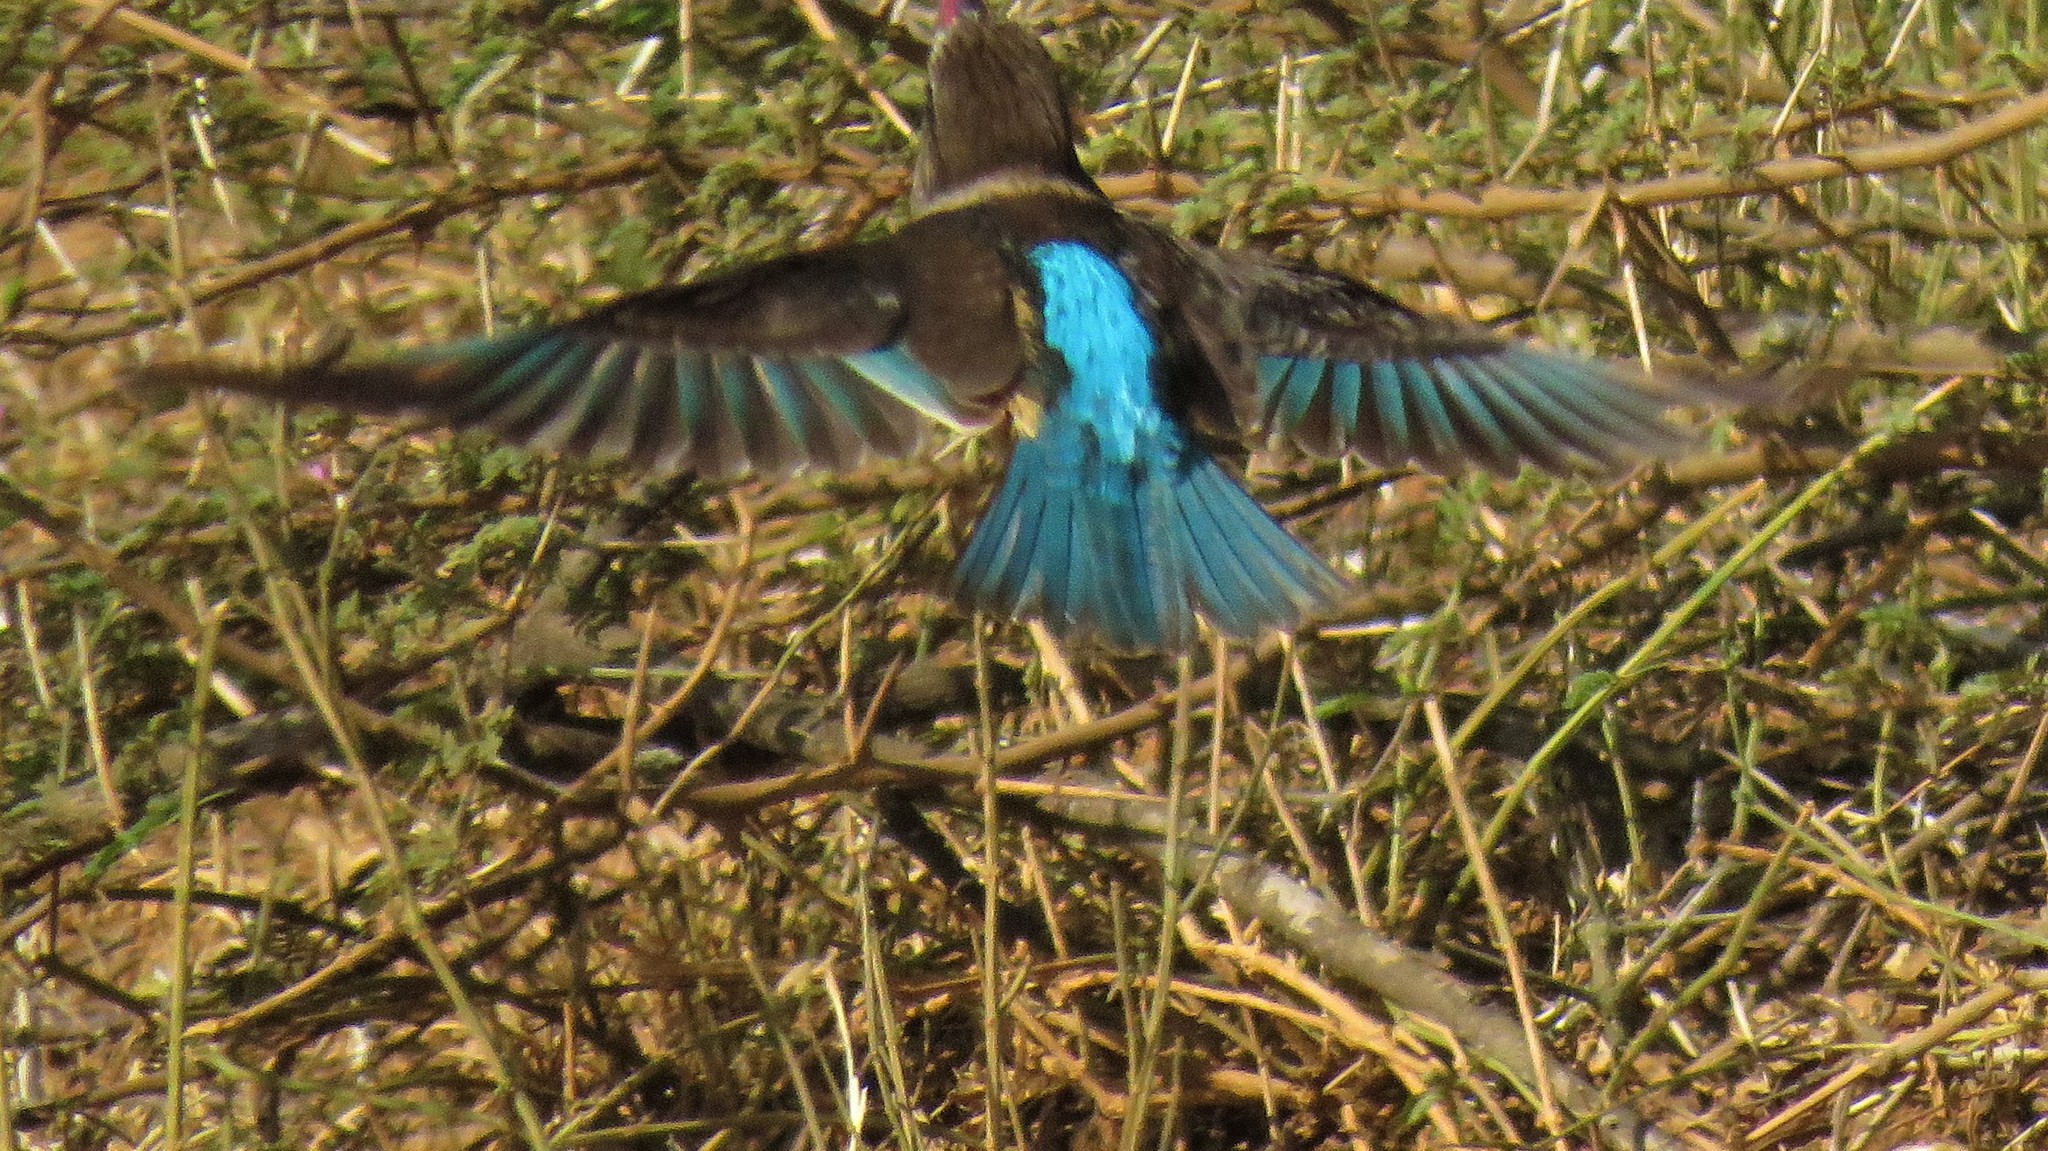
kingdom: Animalia
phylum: Chordata
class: Aves
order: Coraciiformes
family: Alcedinidae
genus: Halcyon
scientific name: Halcyon albiventris
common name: Brown-hooded kingfisher
